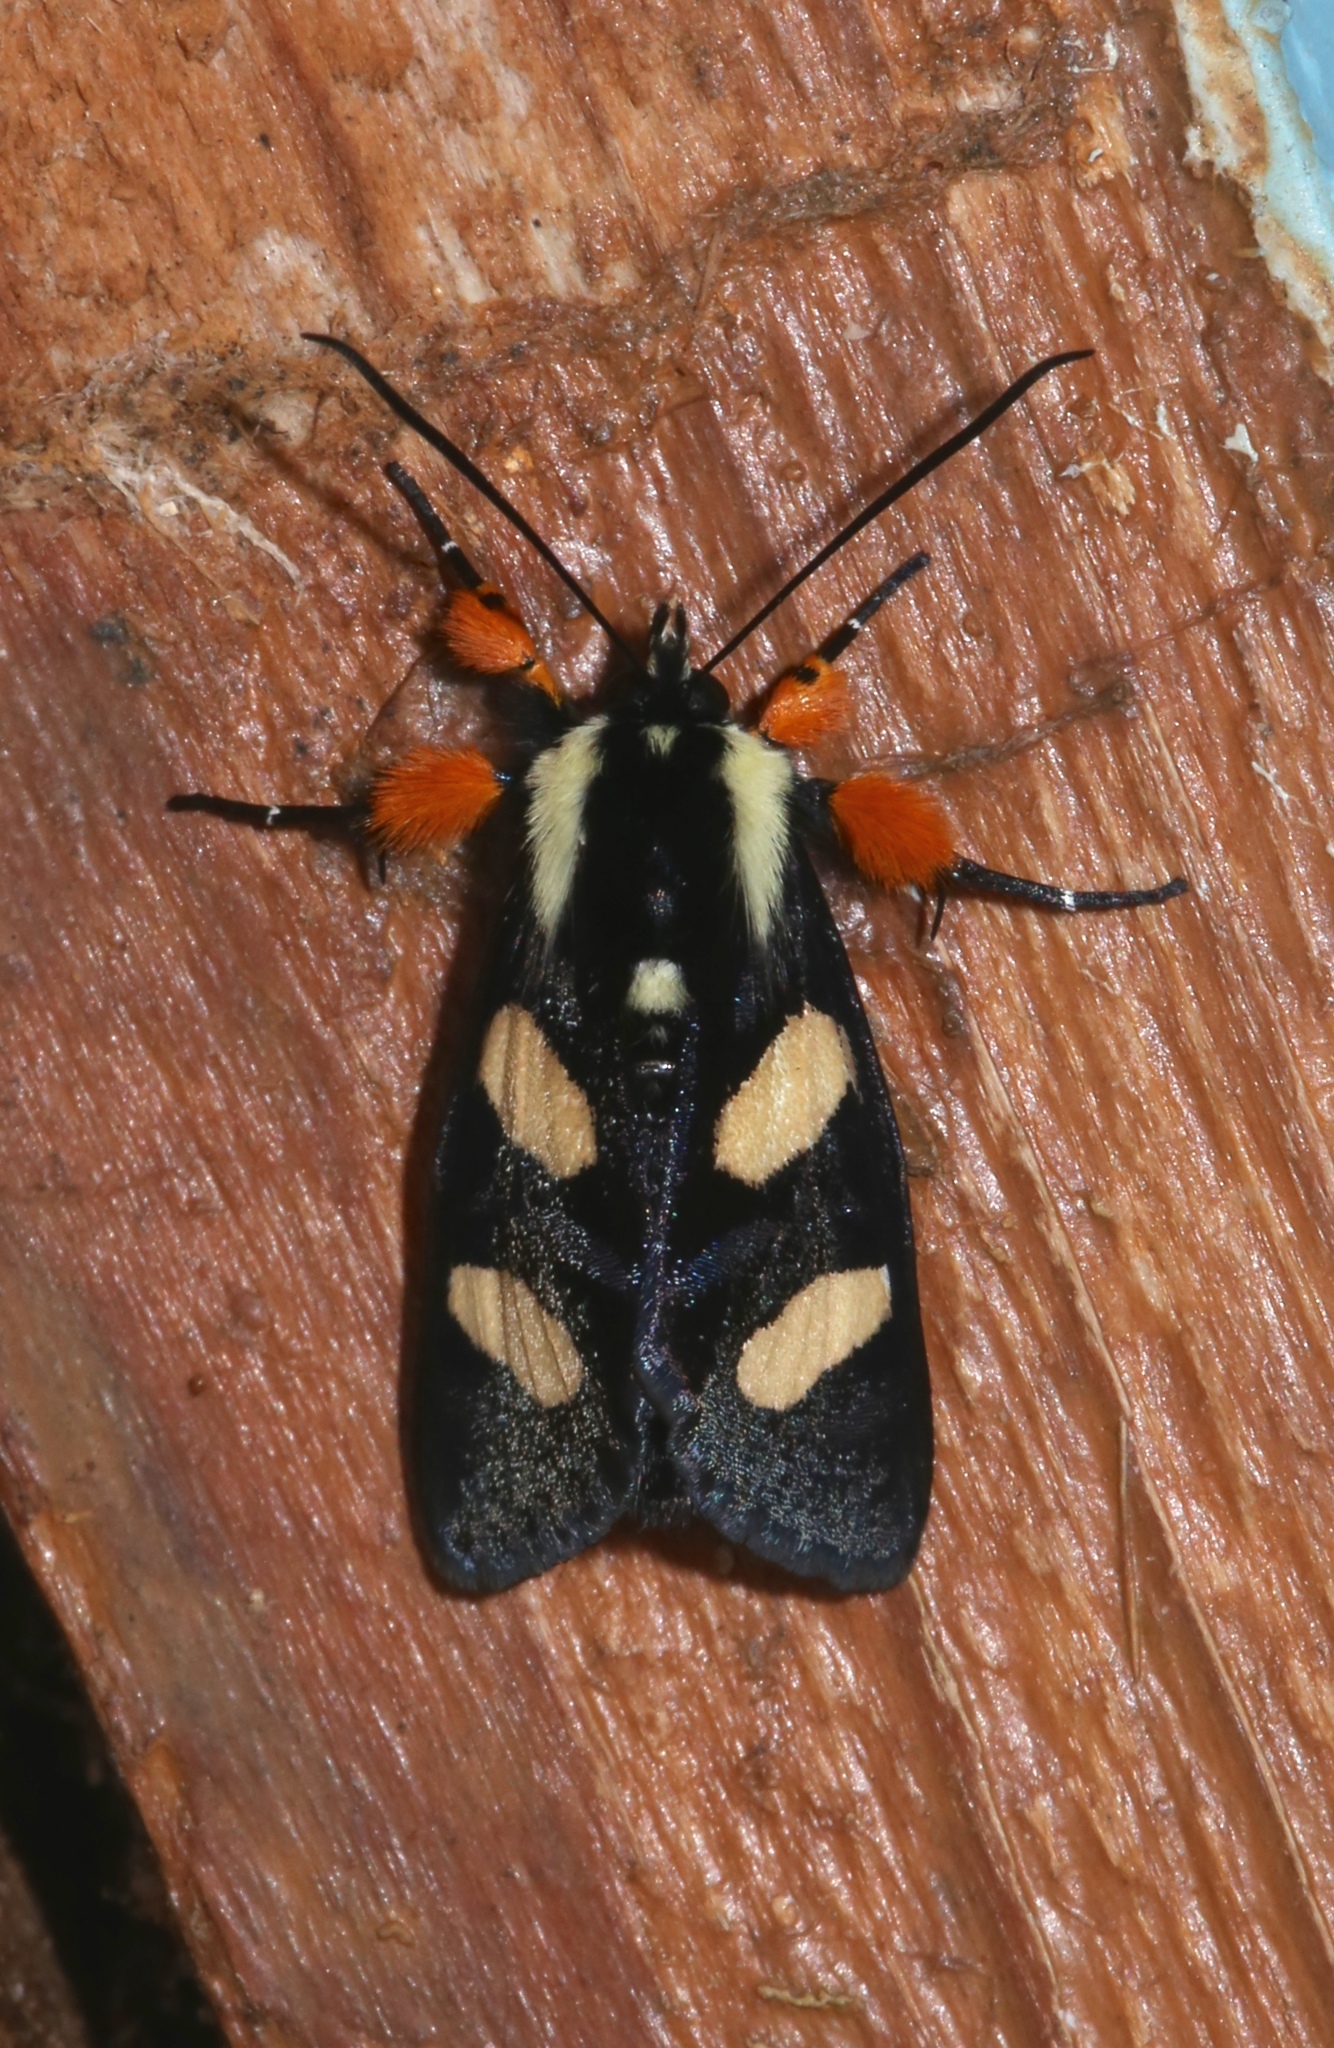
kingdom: Animalia
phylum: Arthropoda
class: Insecta
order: Lepidoptera
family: Noctuidae
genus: Alypia
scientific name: Alypia wittfeldii
